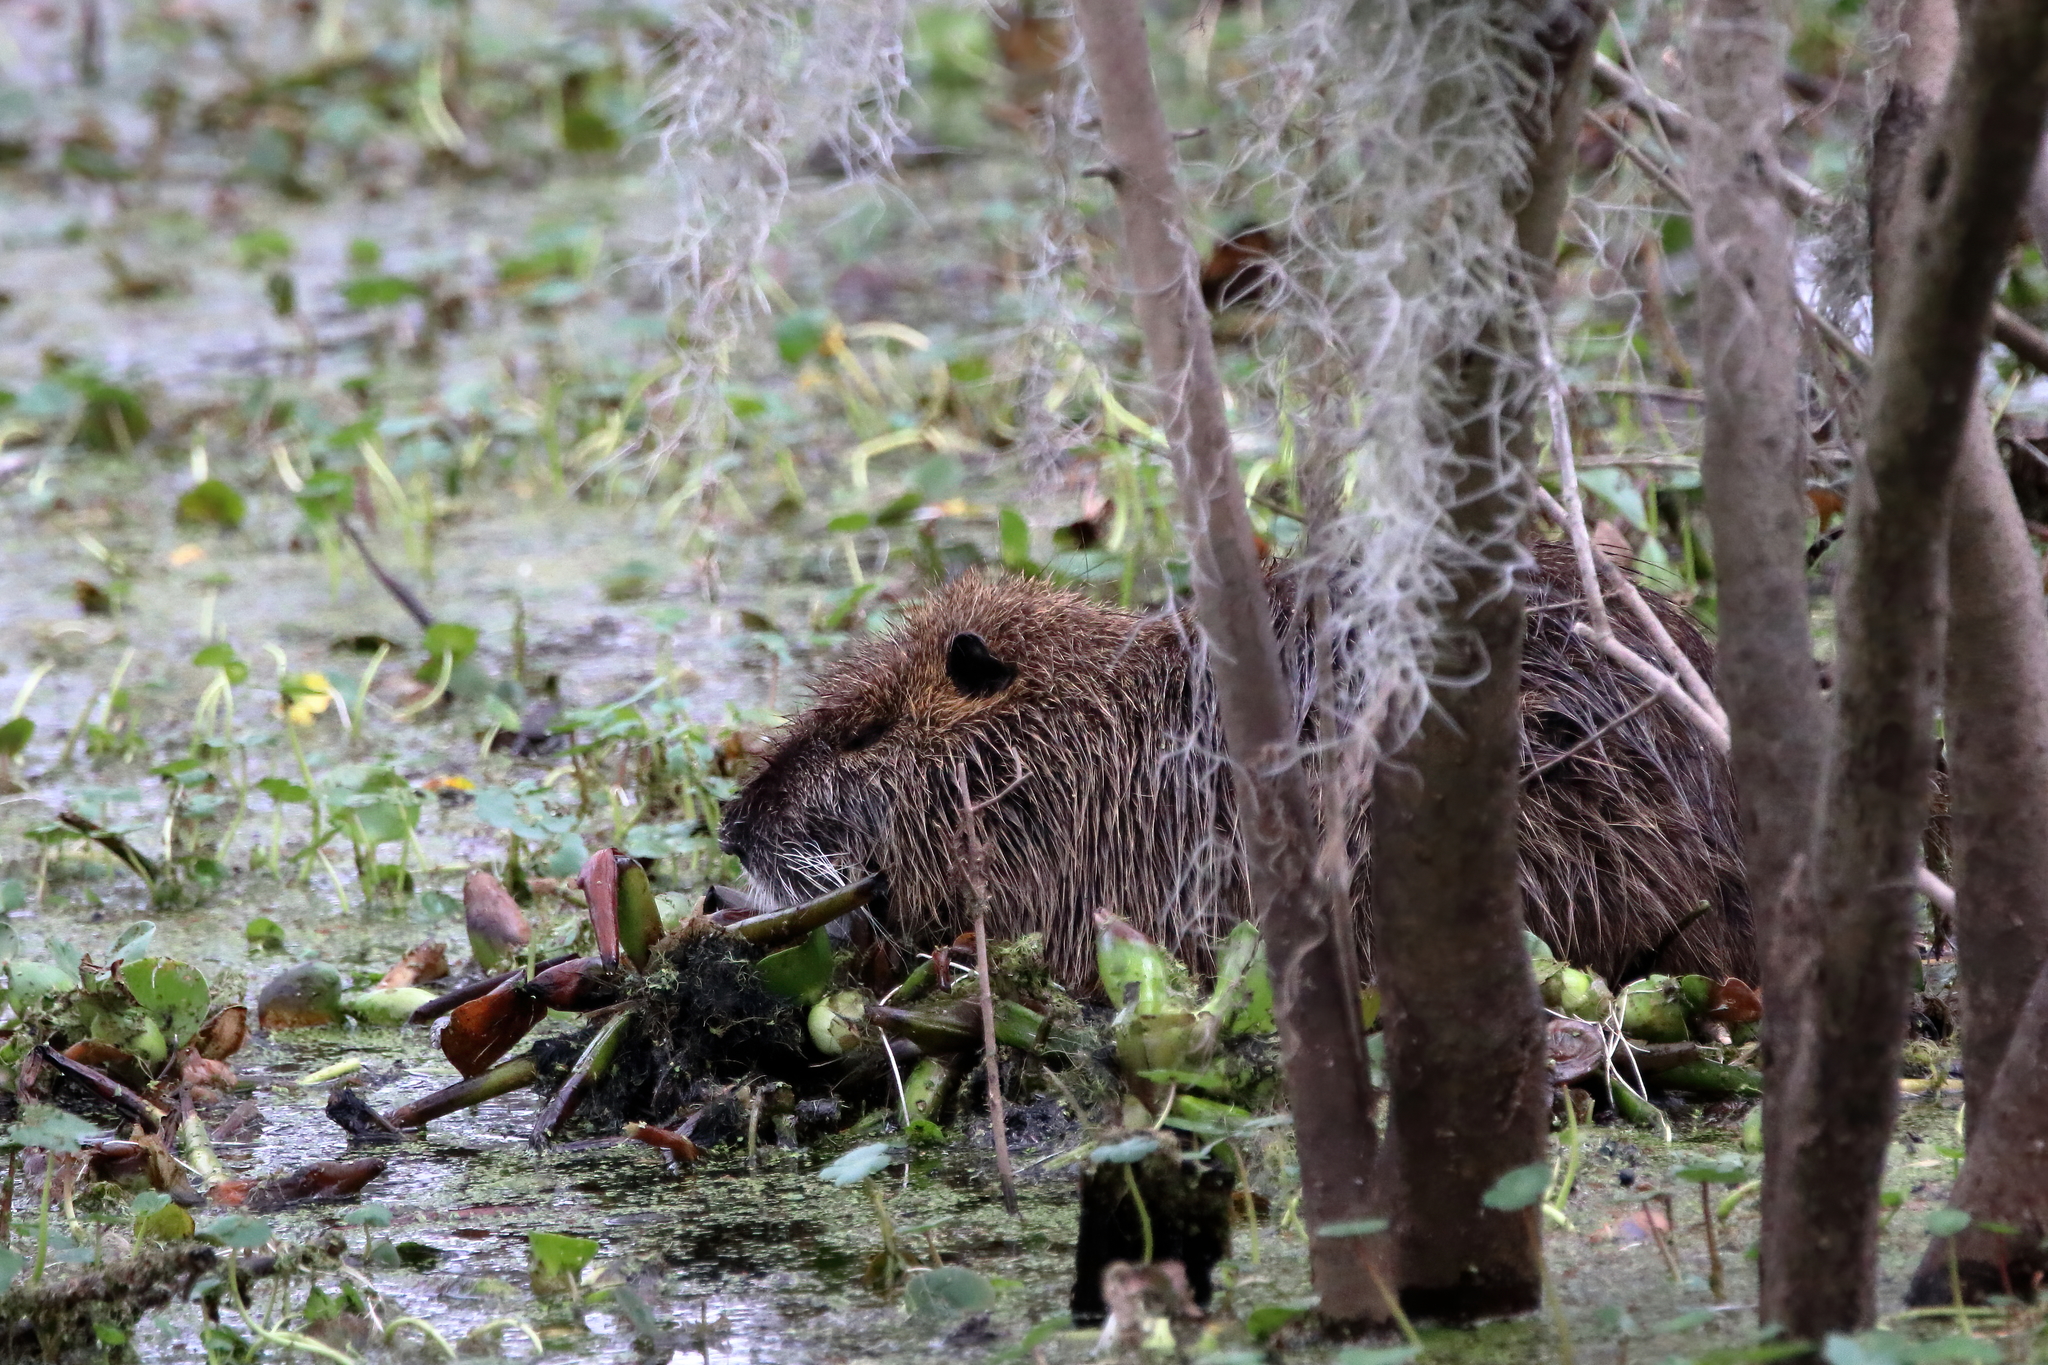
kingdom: Animalia
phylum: Chordata
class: Mammalia
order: Rodentia
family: Myocastoridae
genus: Myocastor
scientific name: Myocastor coypus
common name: Coypu
